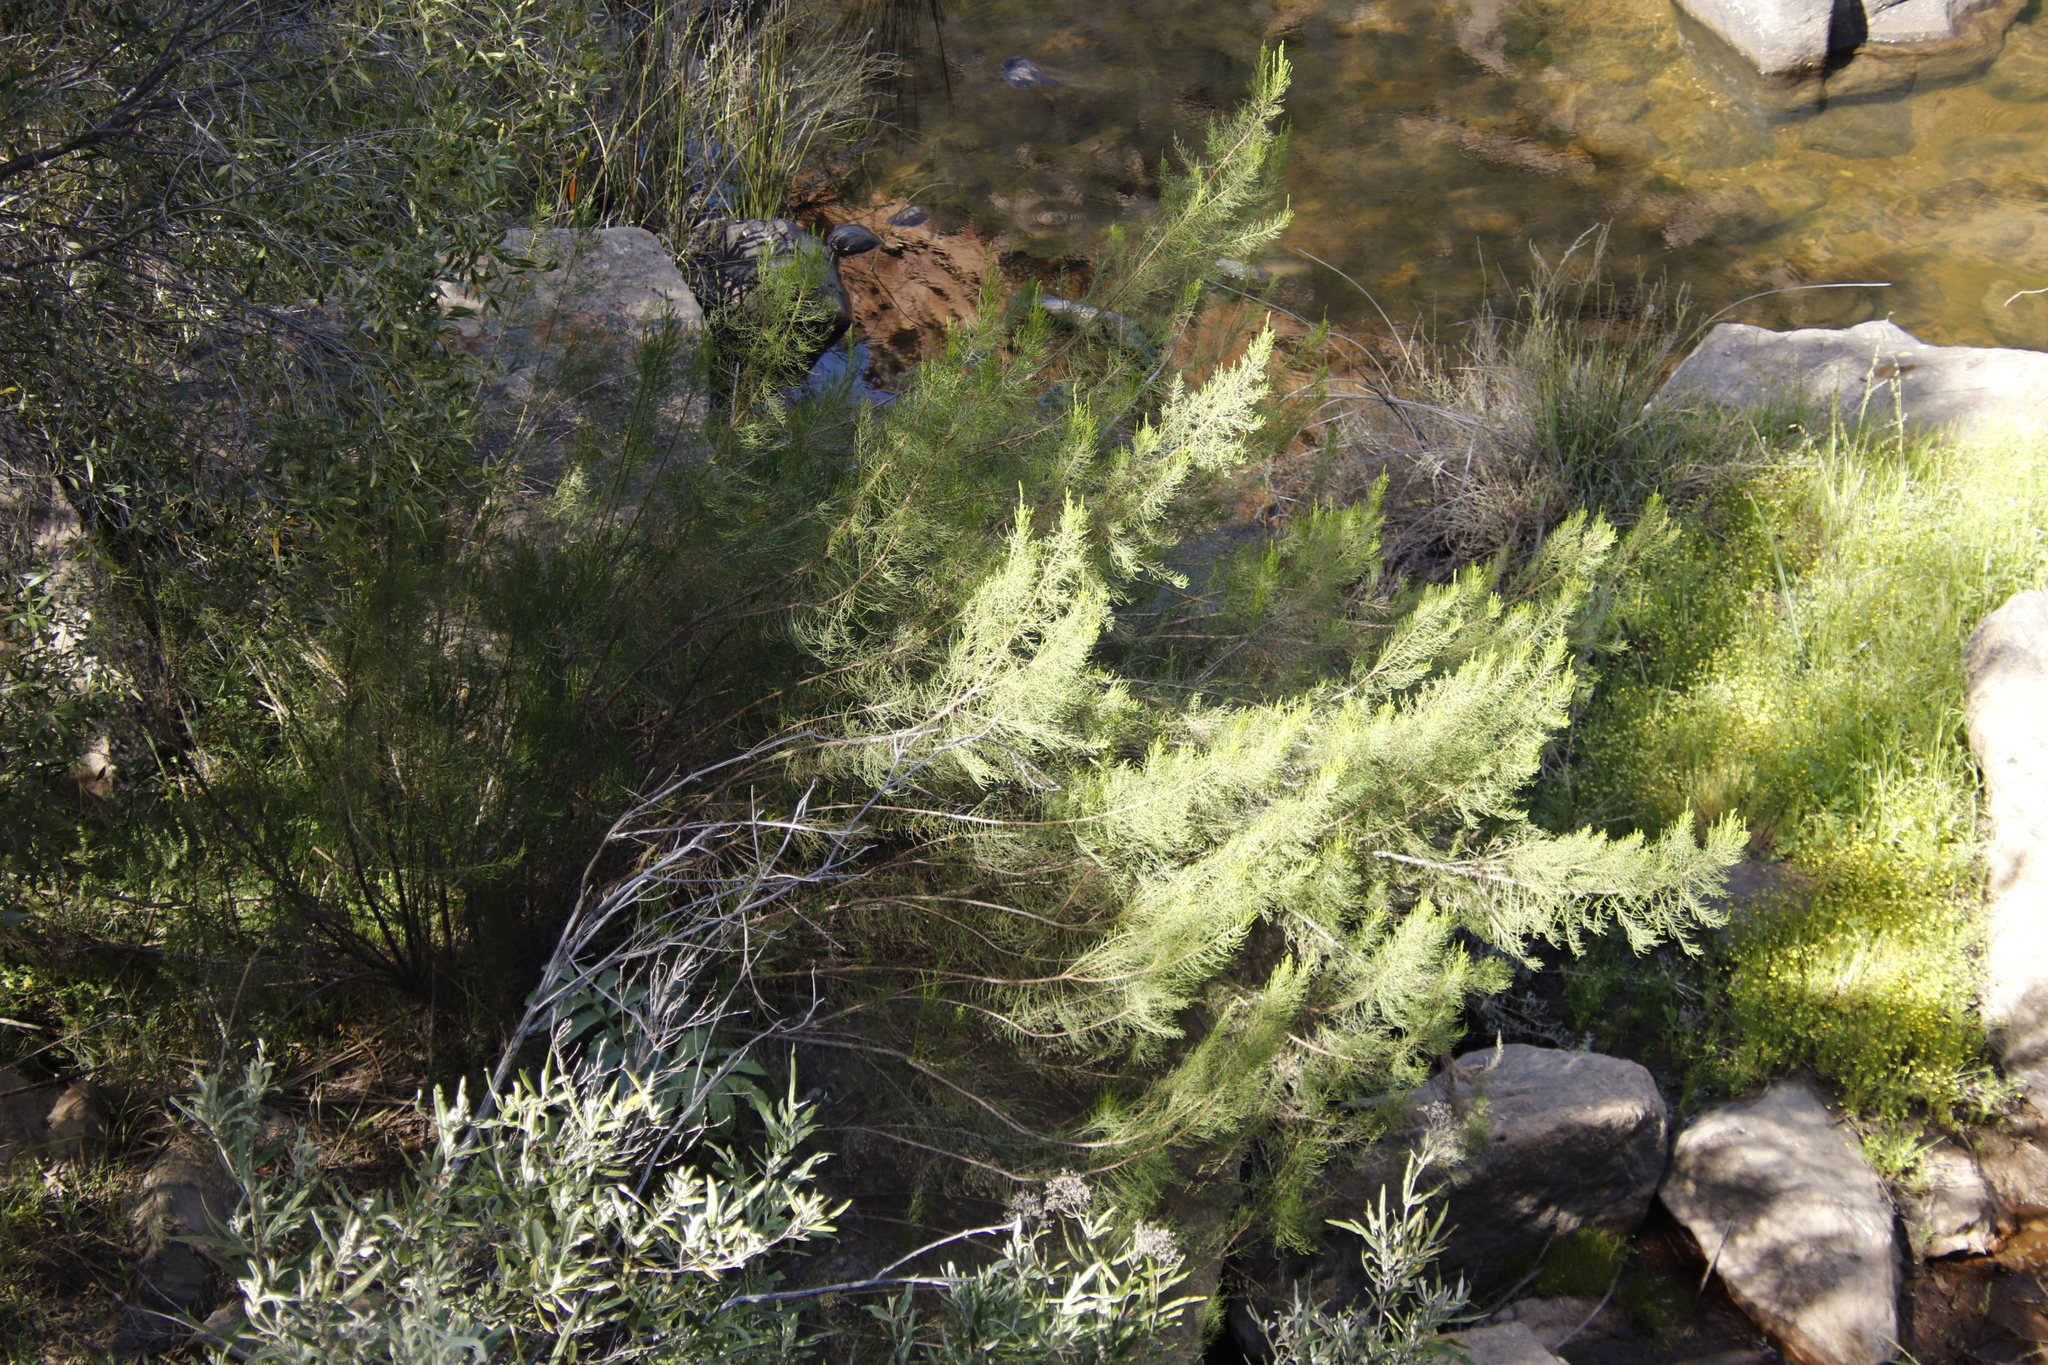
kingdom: Plantae
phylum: Tracheophyta
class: Magnoliopsida
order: Asterales
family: Asteraceae
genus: Dicerothamnus
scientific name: Dicerothamnus rhinocerotis
